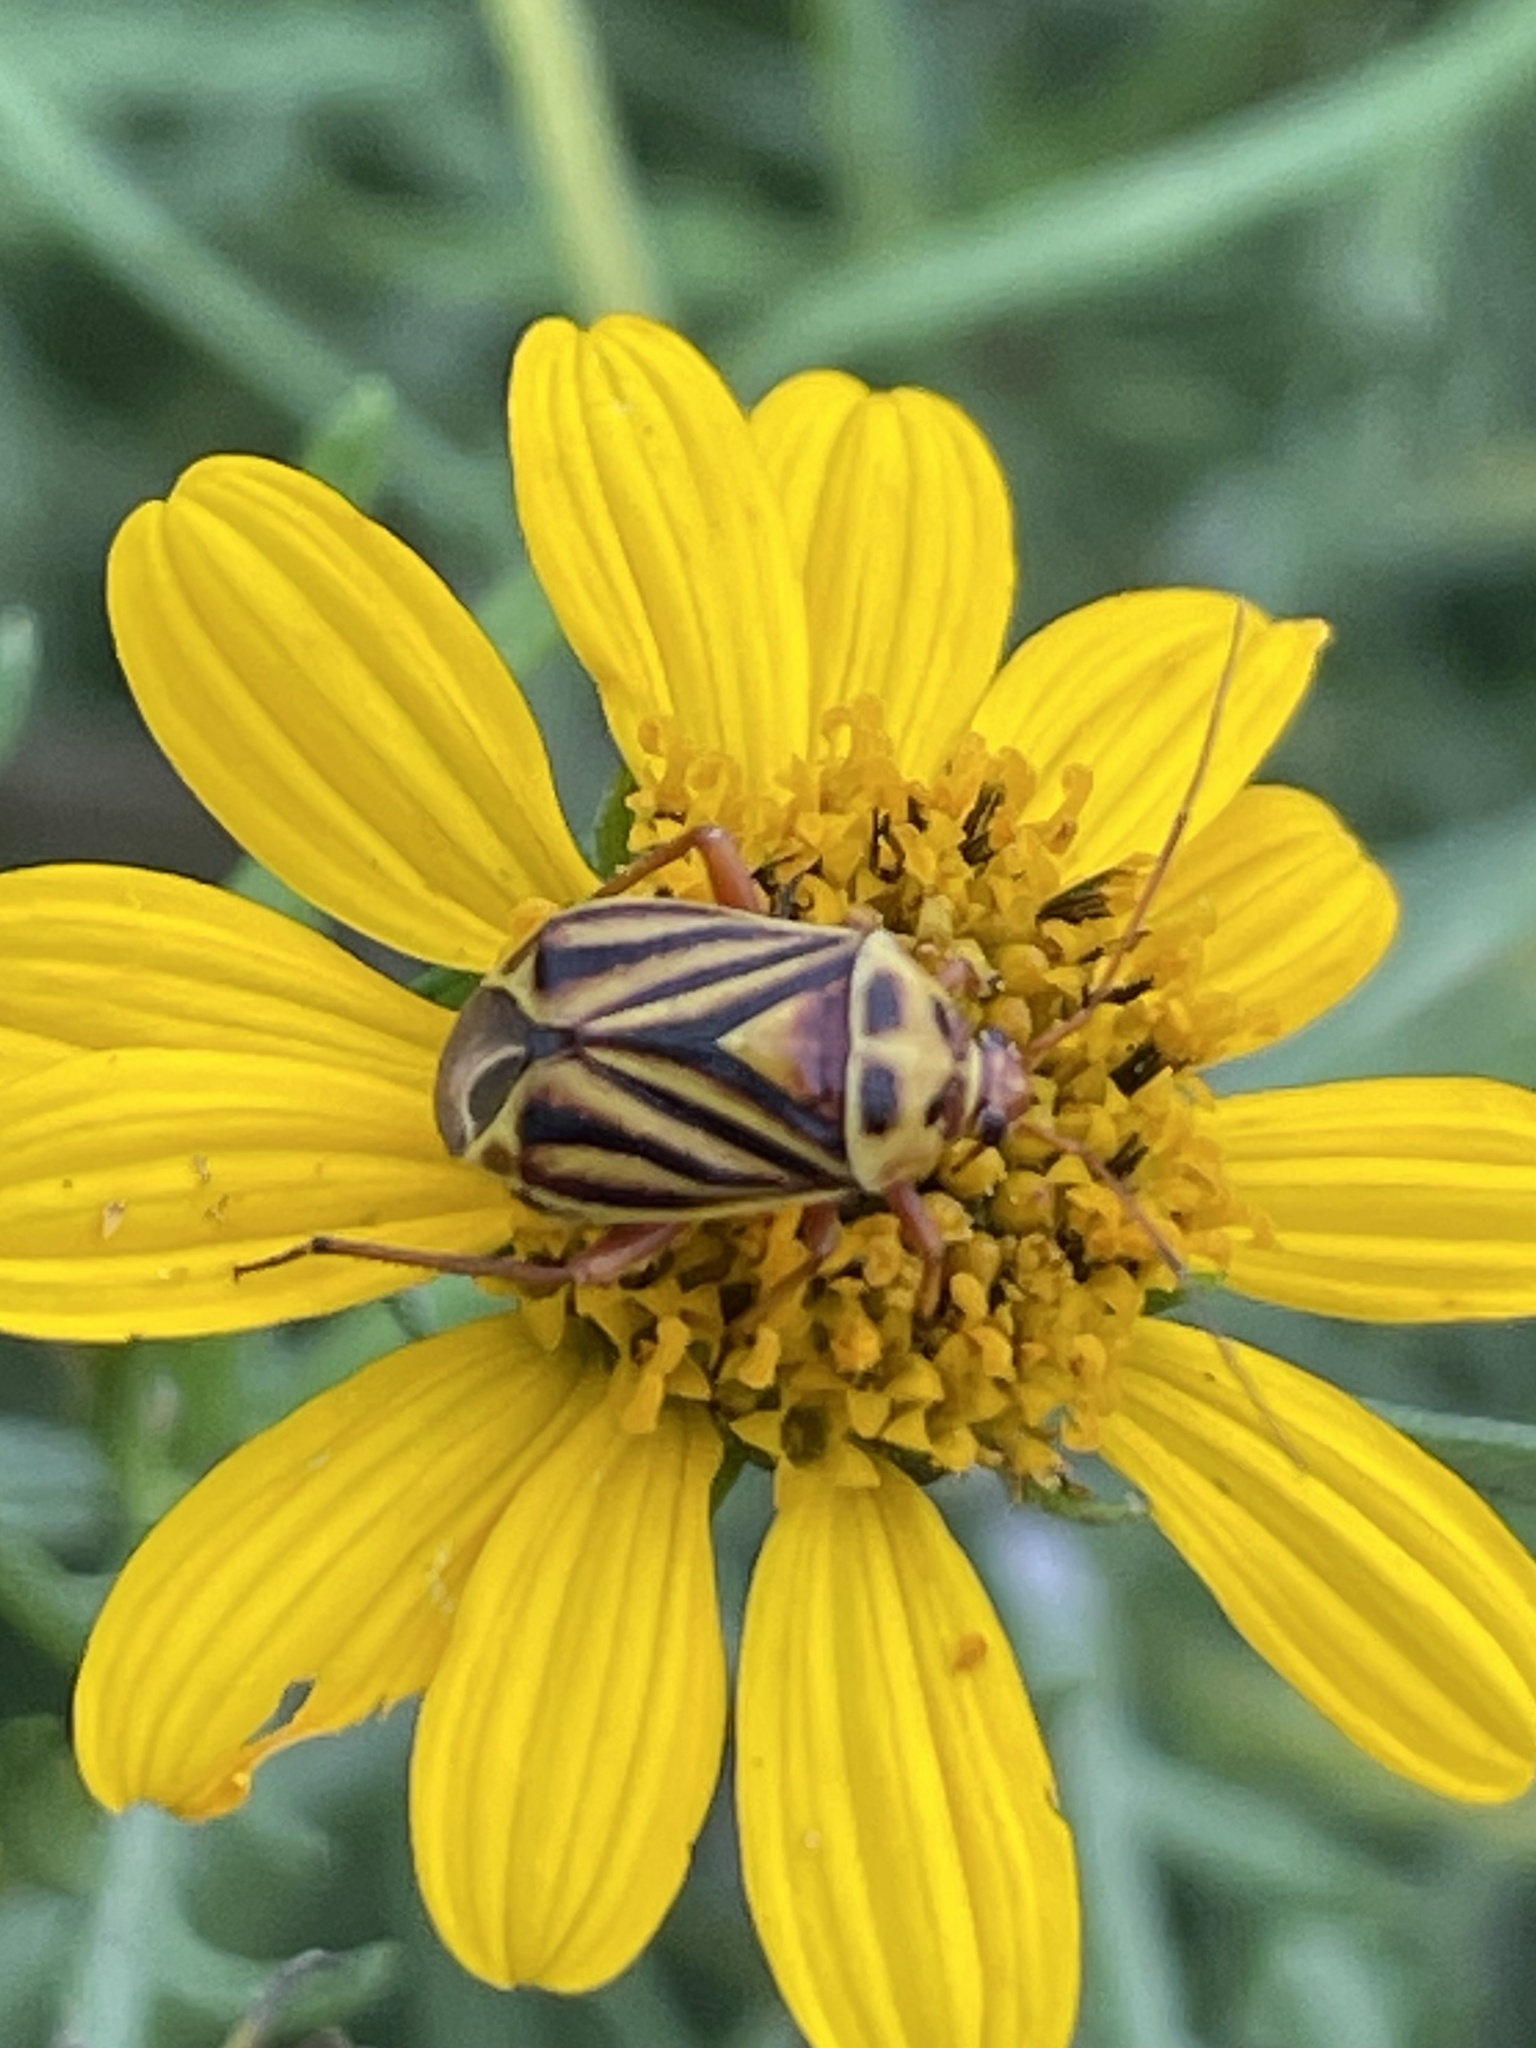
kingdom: Animalia
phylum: Arthropoda
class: Insecta
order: Hemiptera
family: Miridae
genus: Calocoris
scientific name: Calocoris barberi
